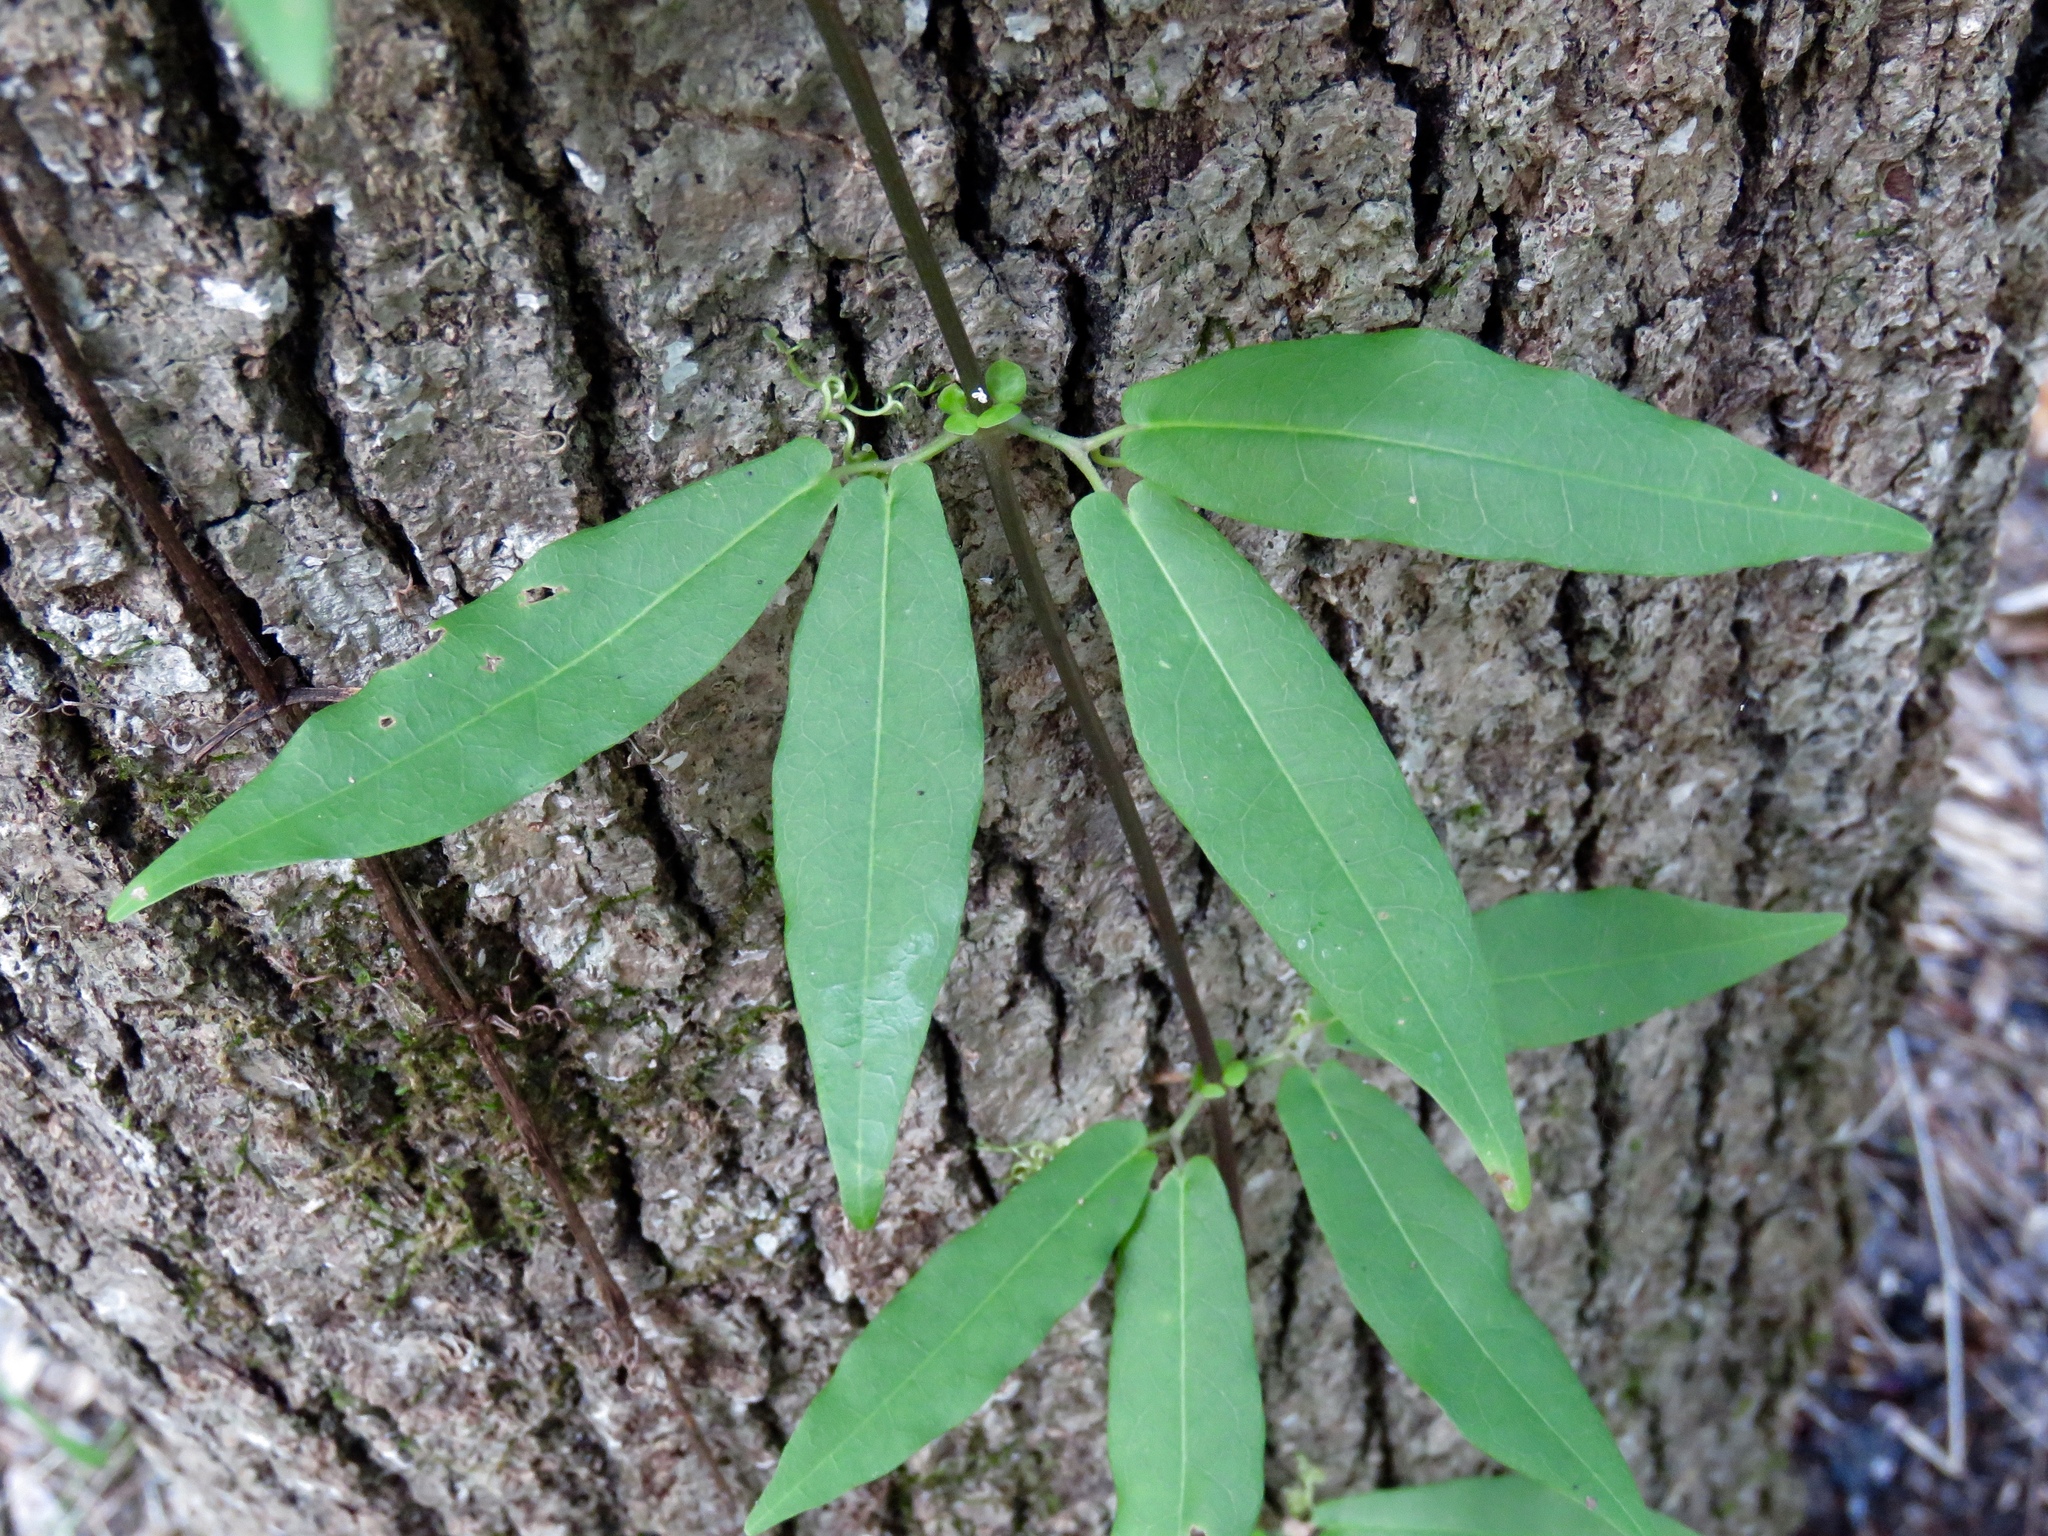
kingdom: Plantae
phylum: Tracheophyta
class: Magnoliopsida
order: Lamiales
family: Bignoniaceae
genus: Bignonia
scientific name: Bignonia capreolata
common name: Crossvine
